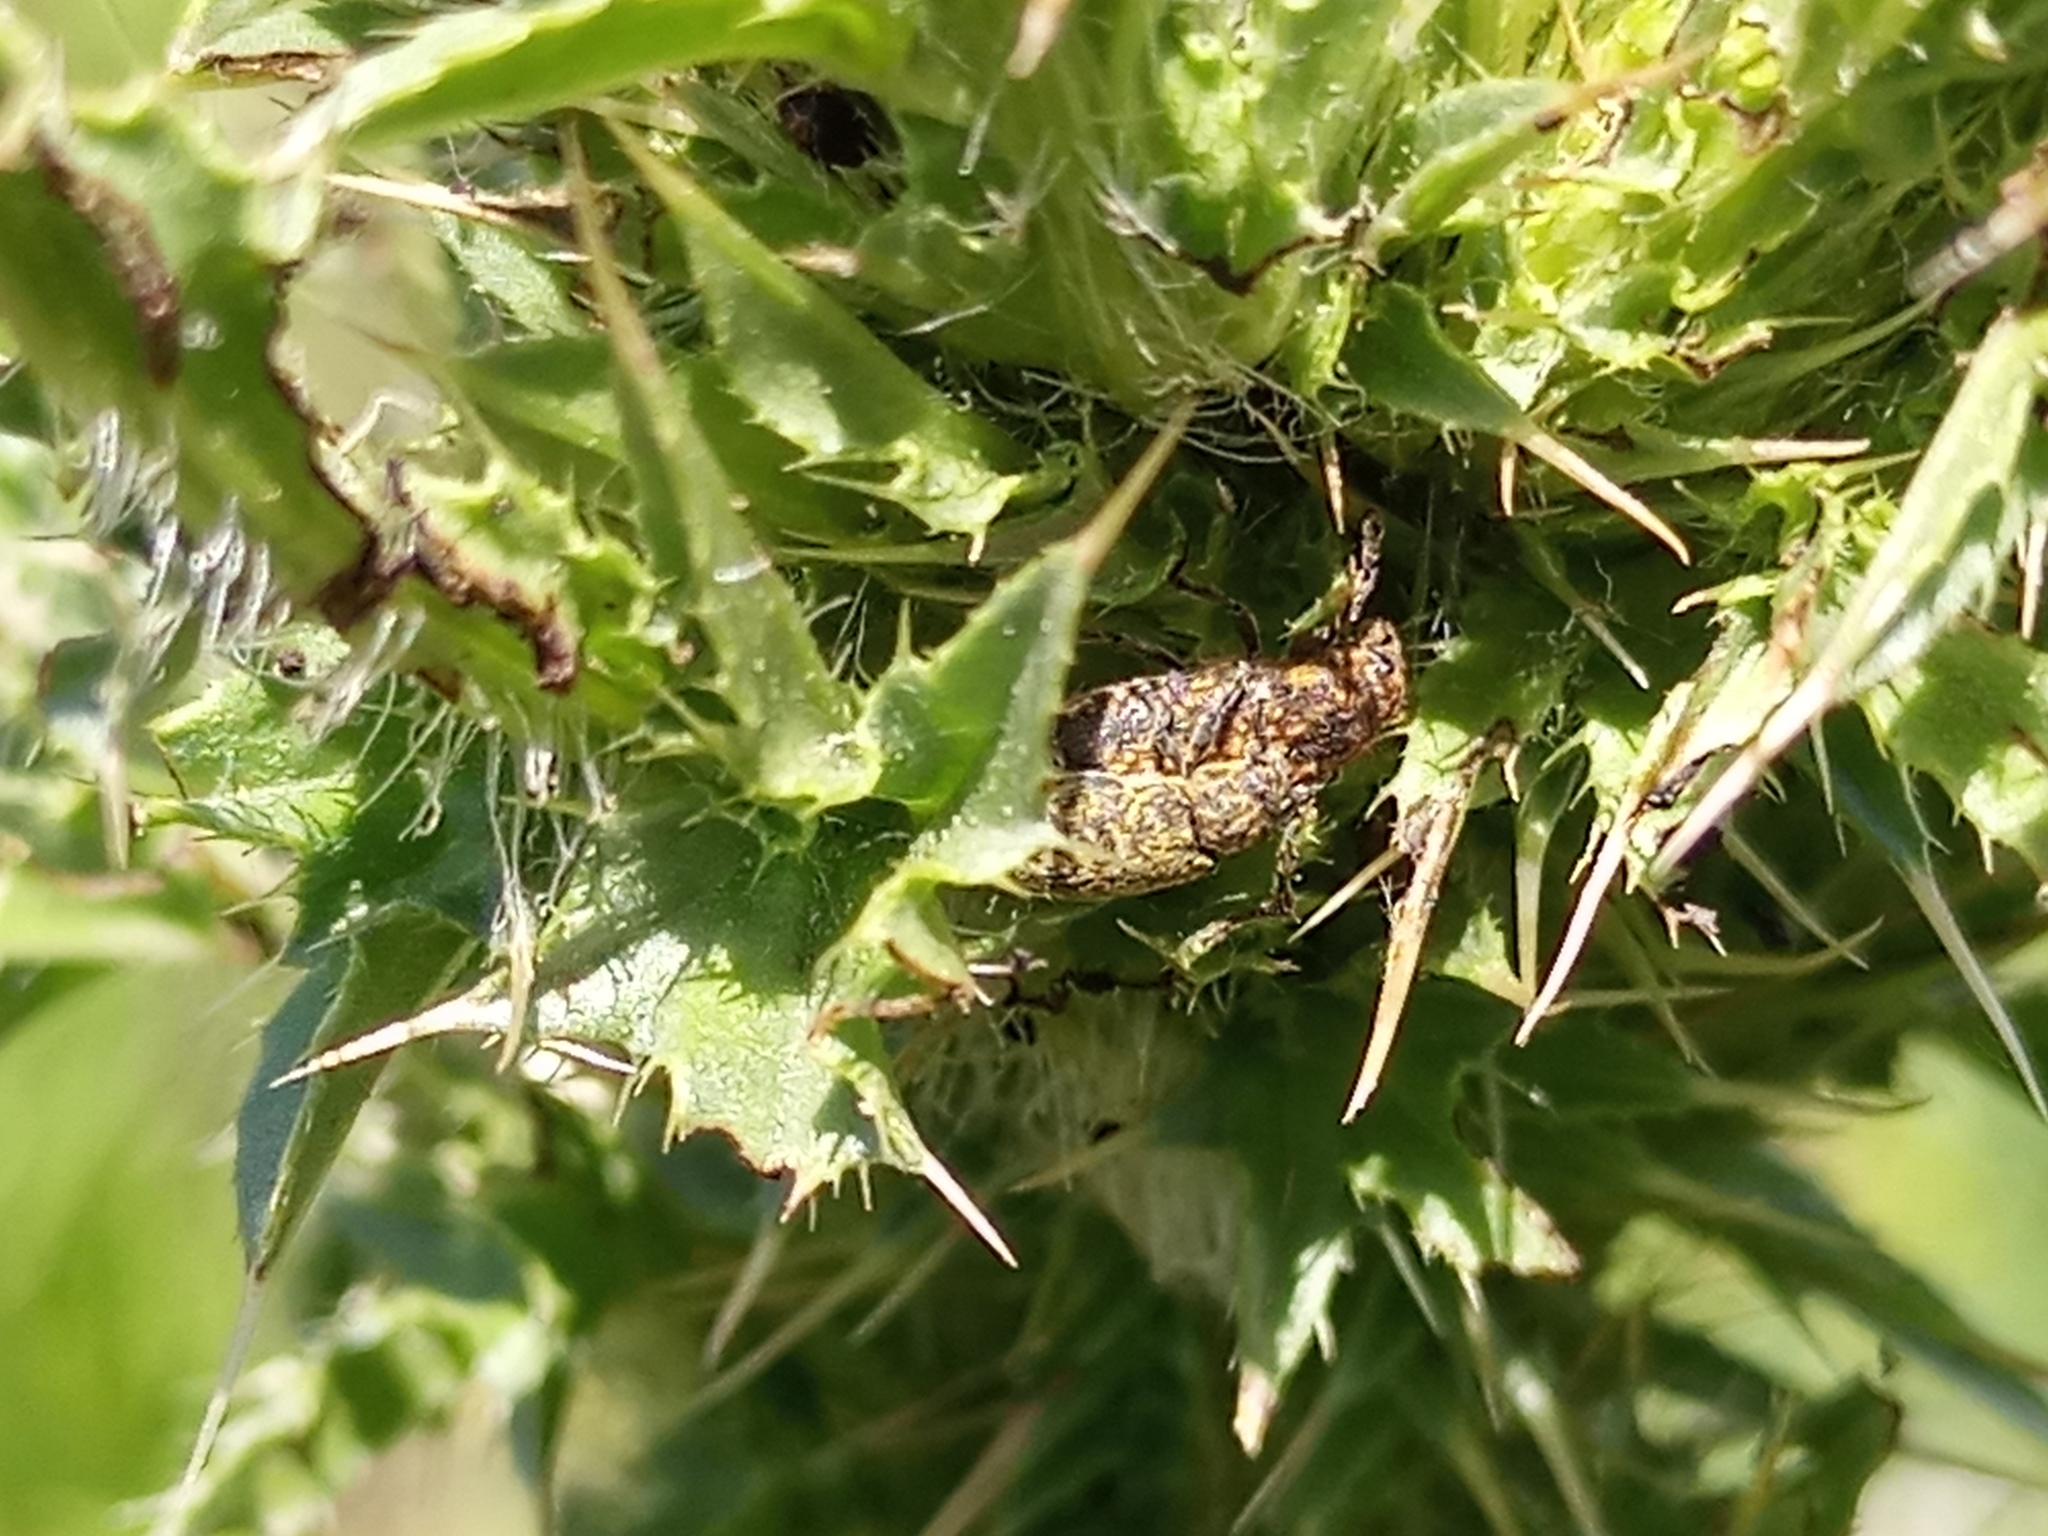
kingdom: Animalia
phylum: Arthropoda
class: Insecta
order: Coleoptera
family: Curculionidae
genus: Rhinocyllus
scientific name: Rhinocyllus conicus
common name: Weevil
